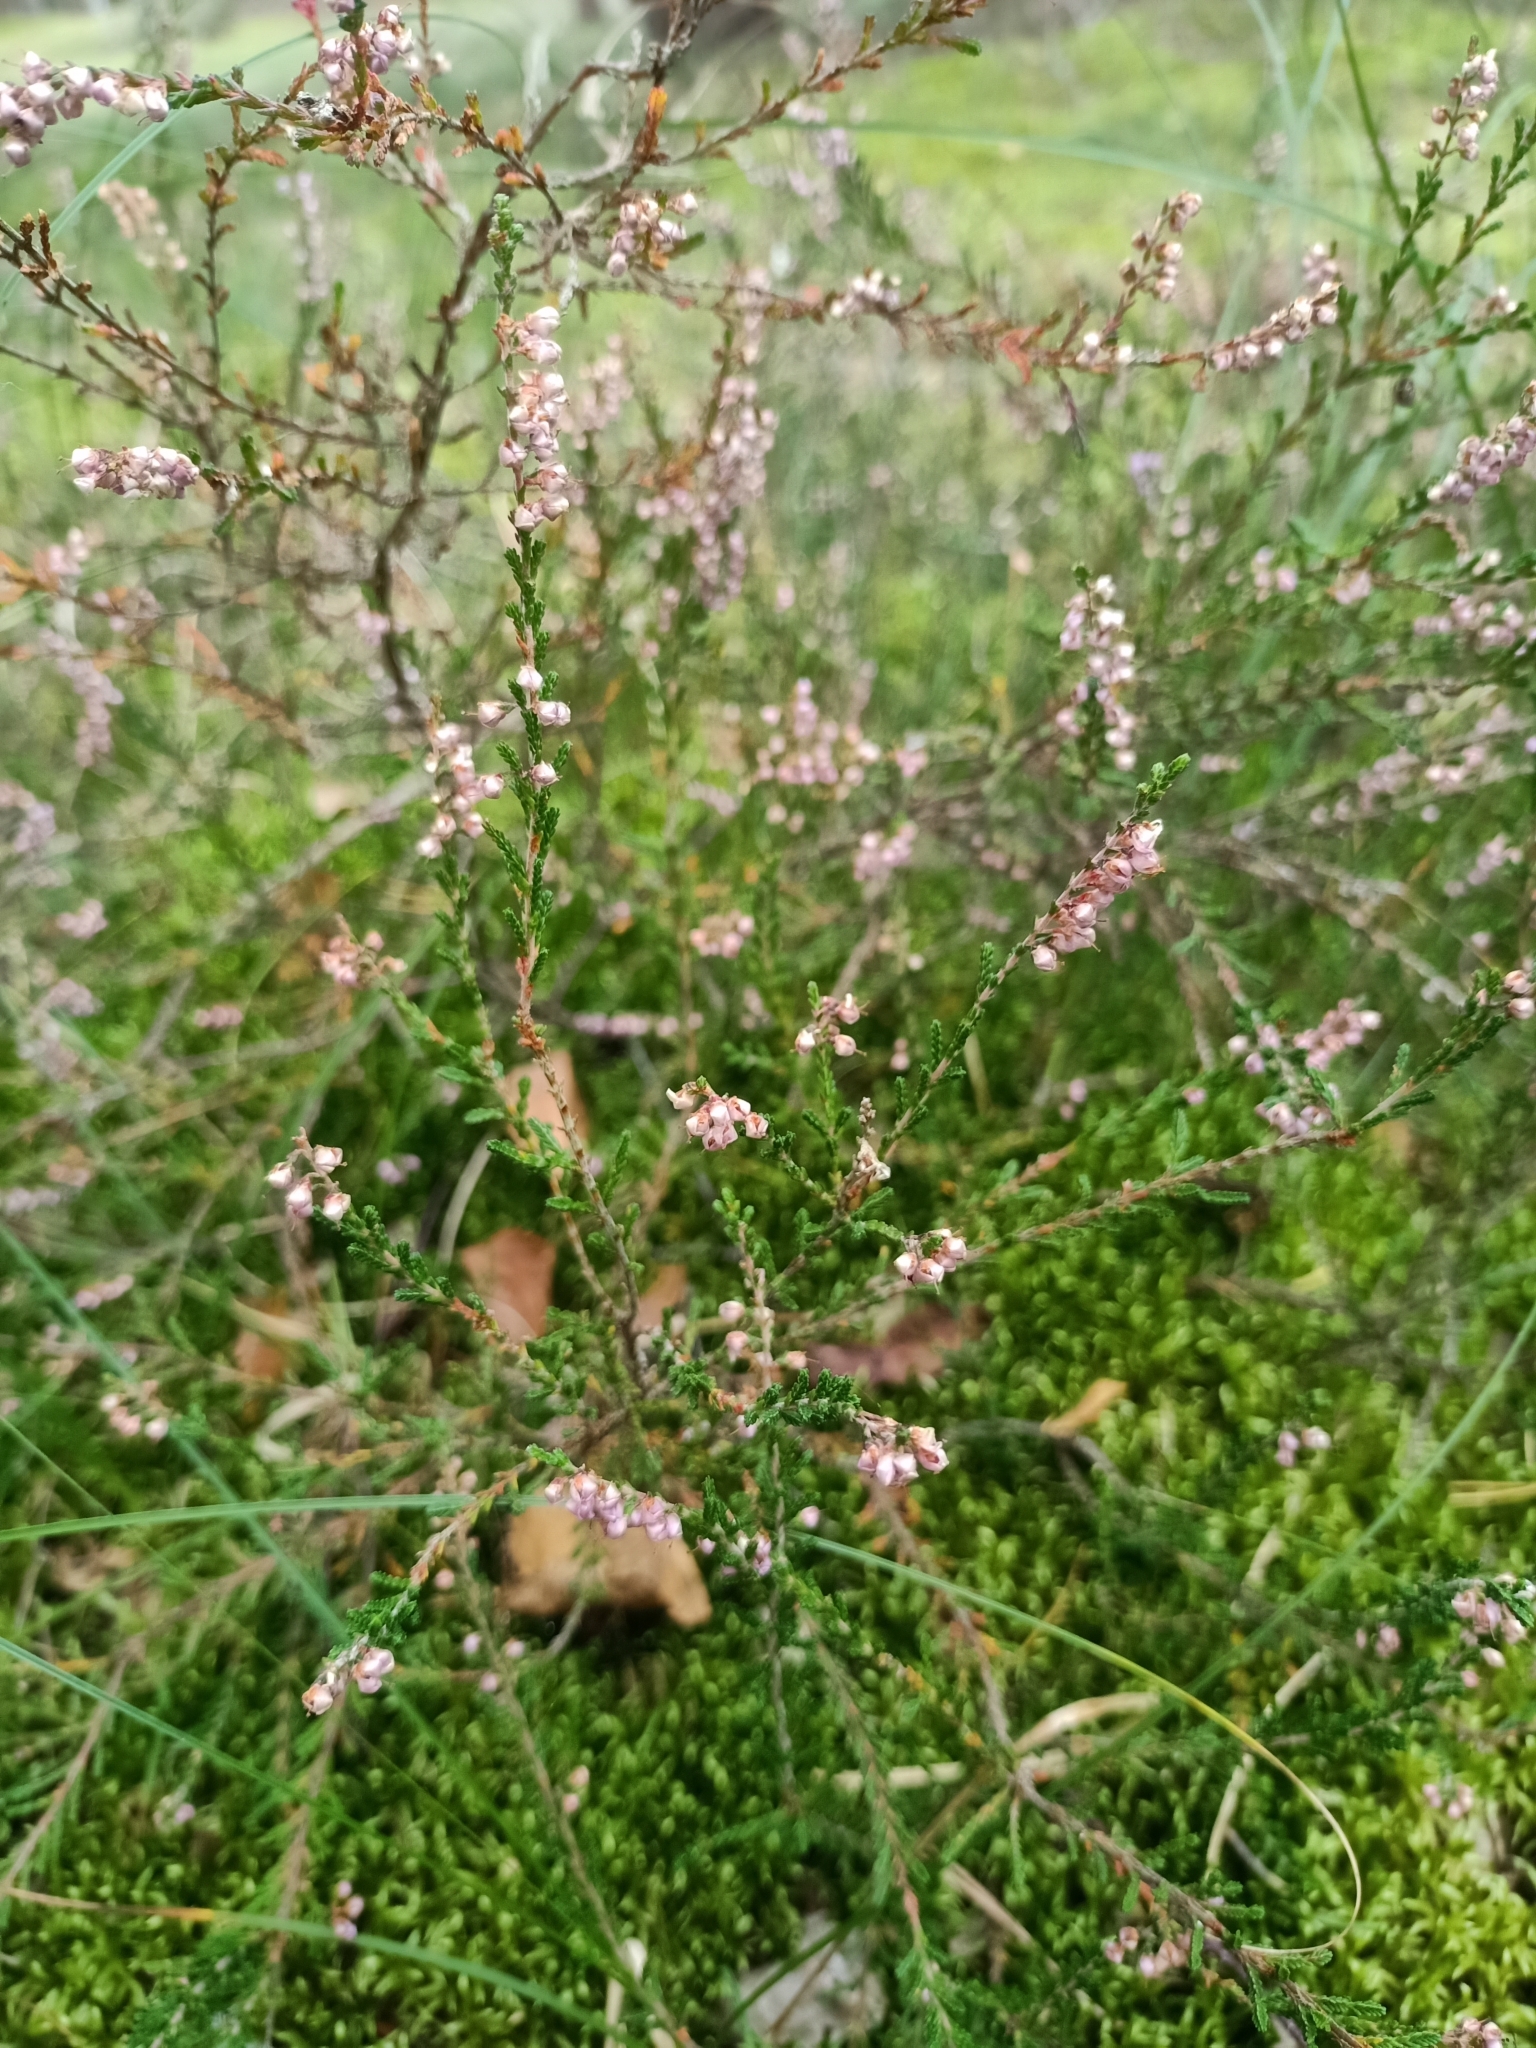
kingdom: Plantae
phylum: Tracheophyta
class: Magnoliopsida
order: Ericales
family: Ericaceae
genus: Calluna
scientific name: Calluna vulgaris
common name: Heather
